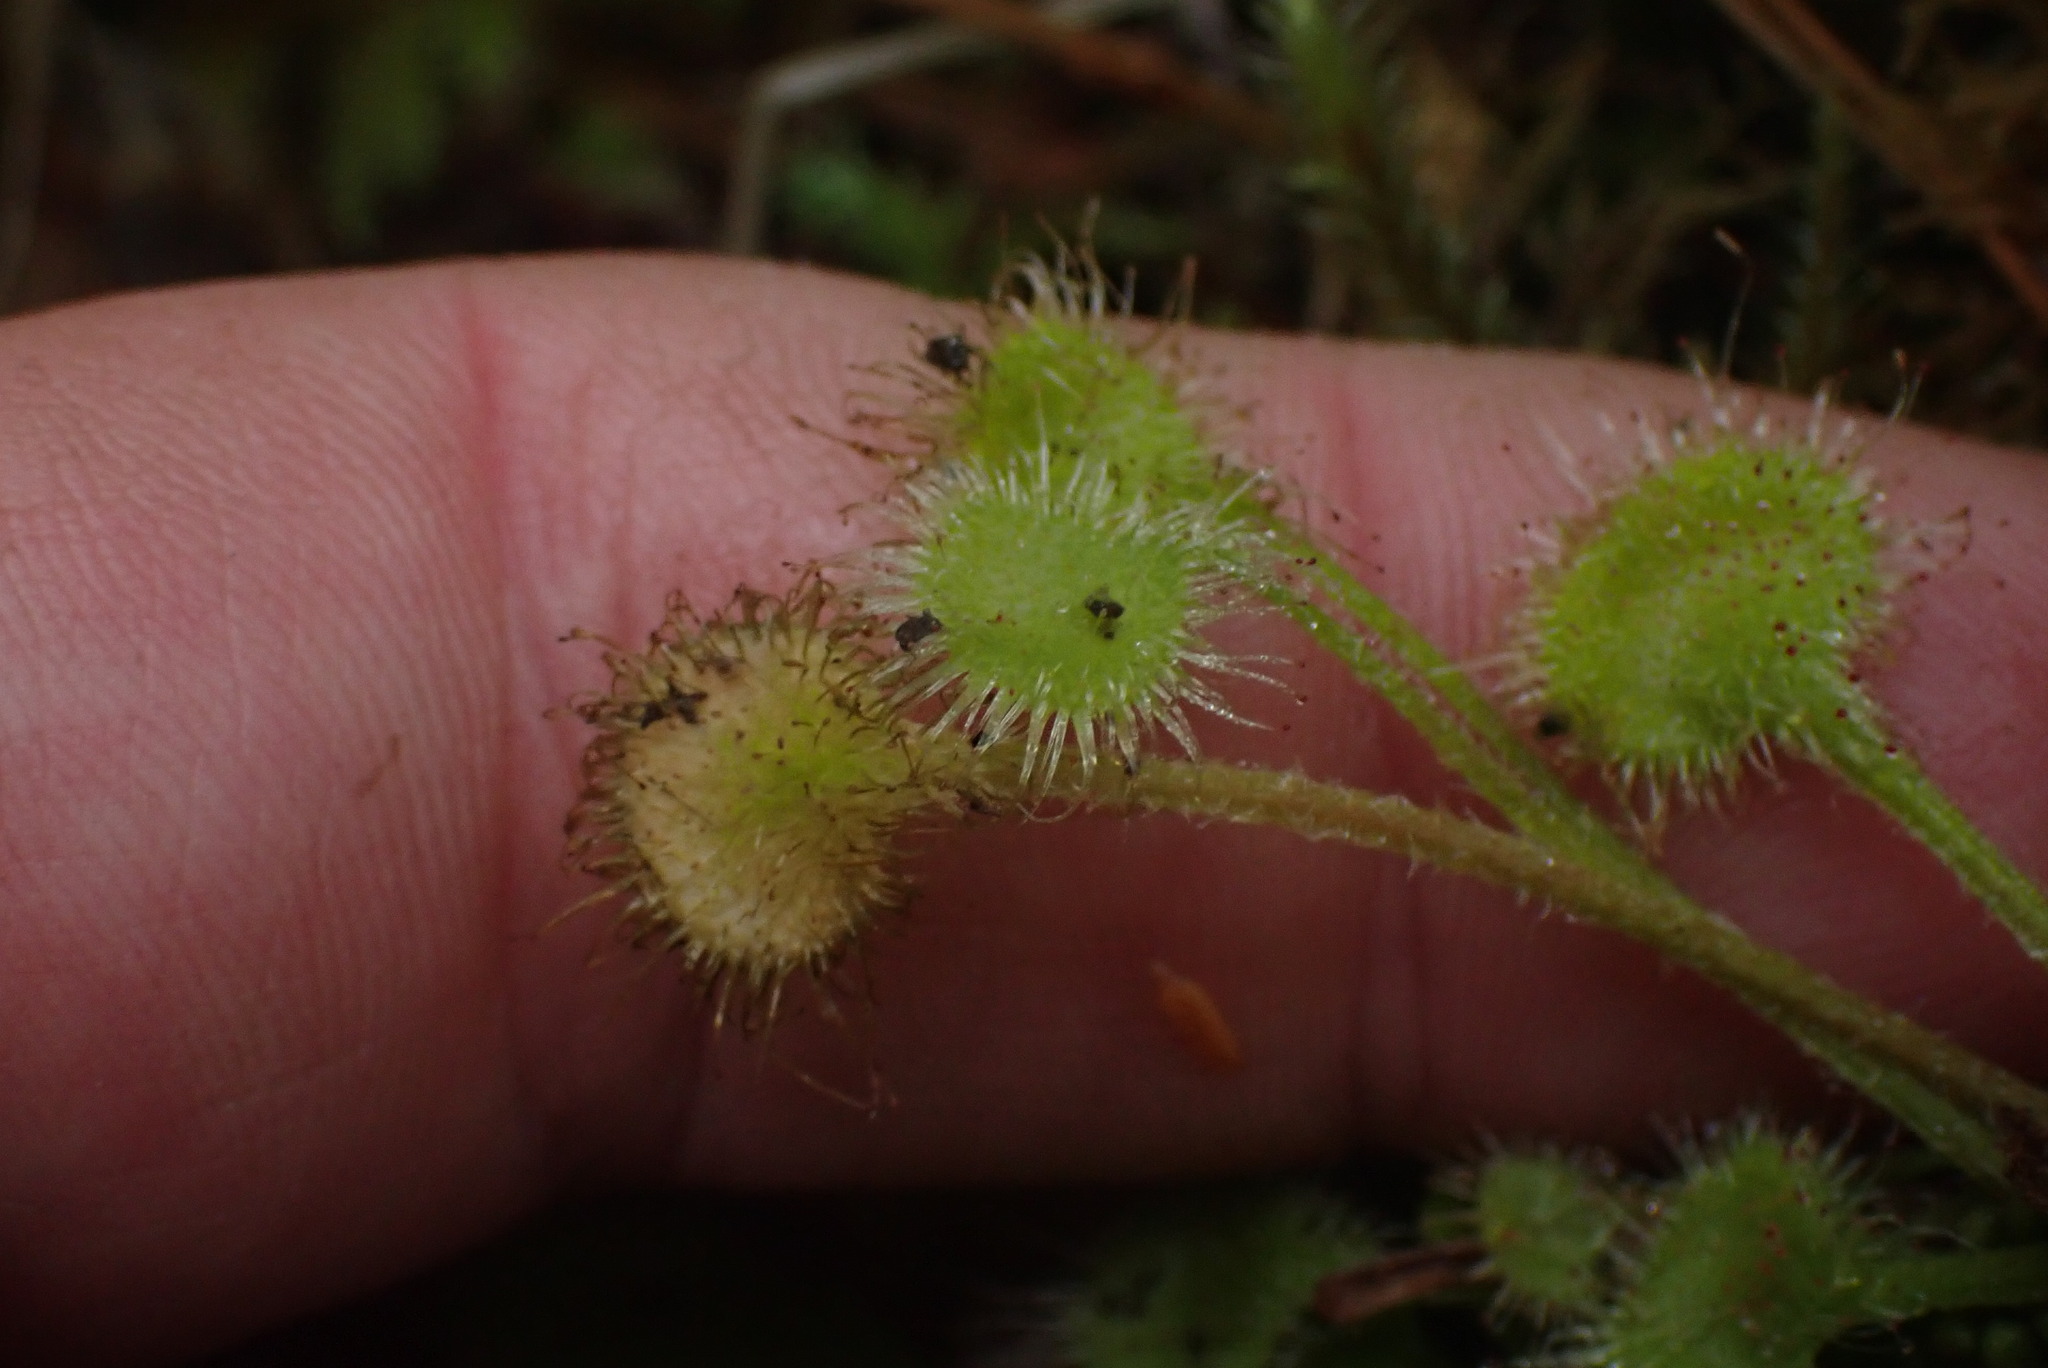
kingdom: Plantae
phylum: Tracheophyta
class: Magnoliopsida
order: Caryophyllales
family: Droseraceae
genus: Drosera
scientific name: Drosera rotundifolia
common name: Round-leaved sundew
